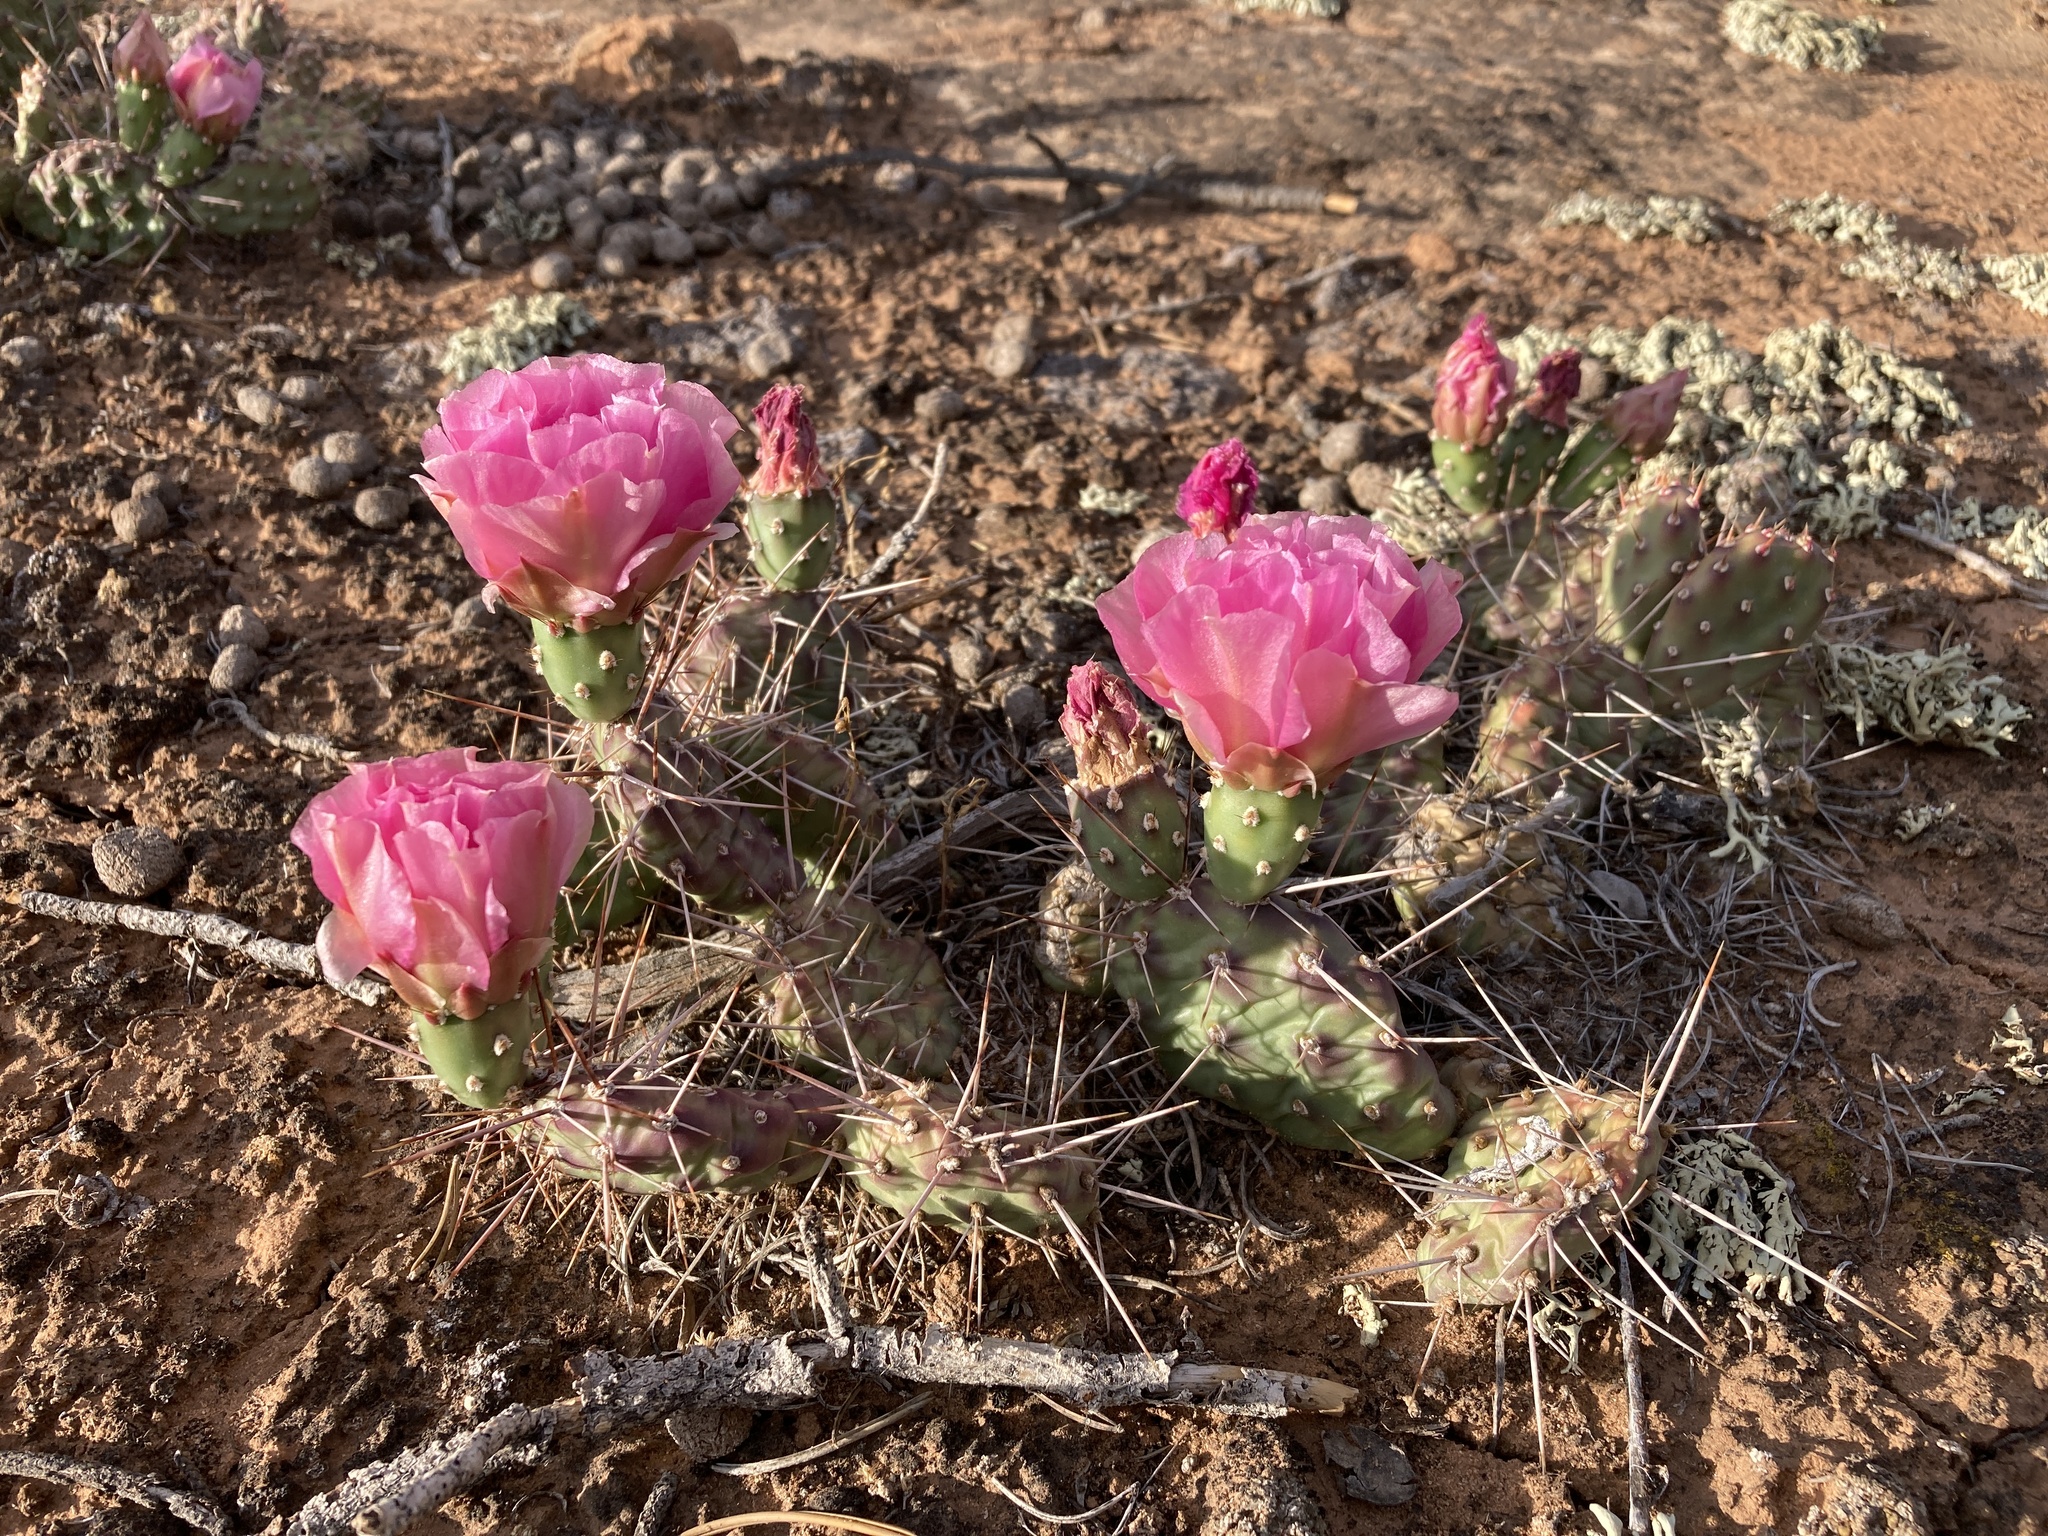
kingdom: Plantae
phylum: Tracheophyta
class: Magnoliopsida
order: Caryophyllales
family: Cactaceae
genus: Opuntia
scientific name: Opuntia fragilis
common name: Brittle cactus
